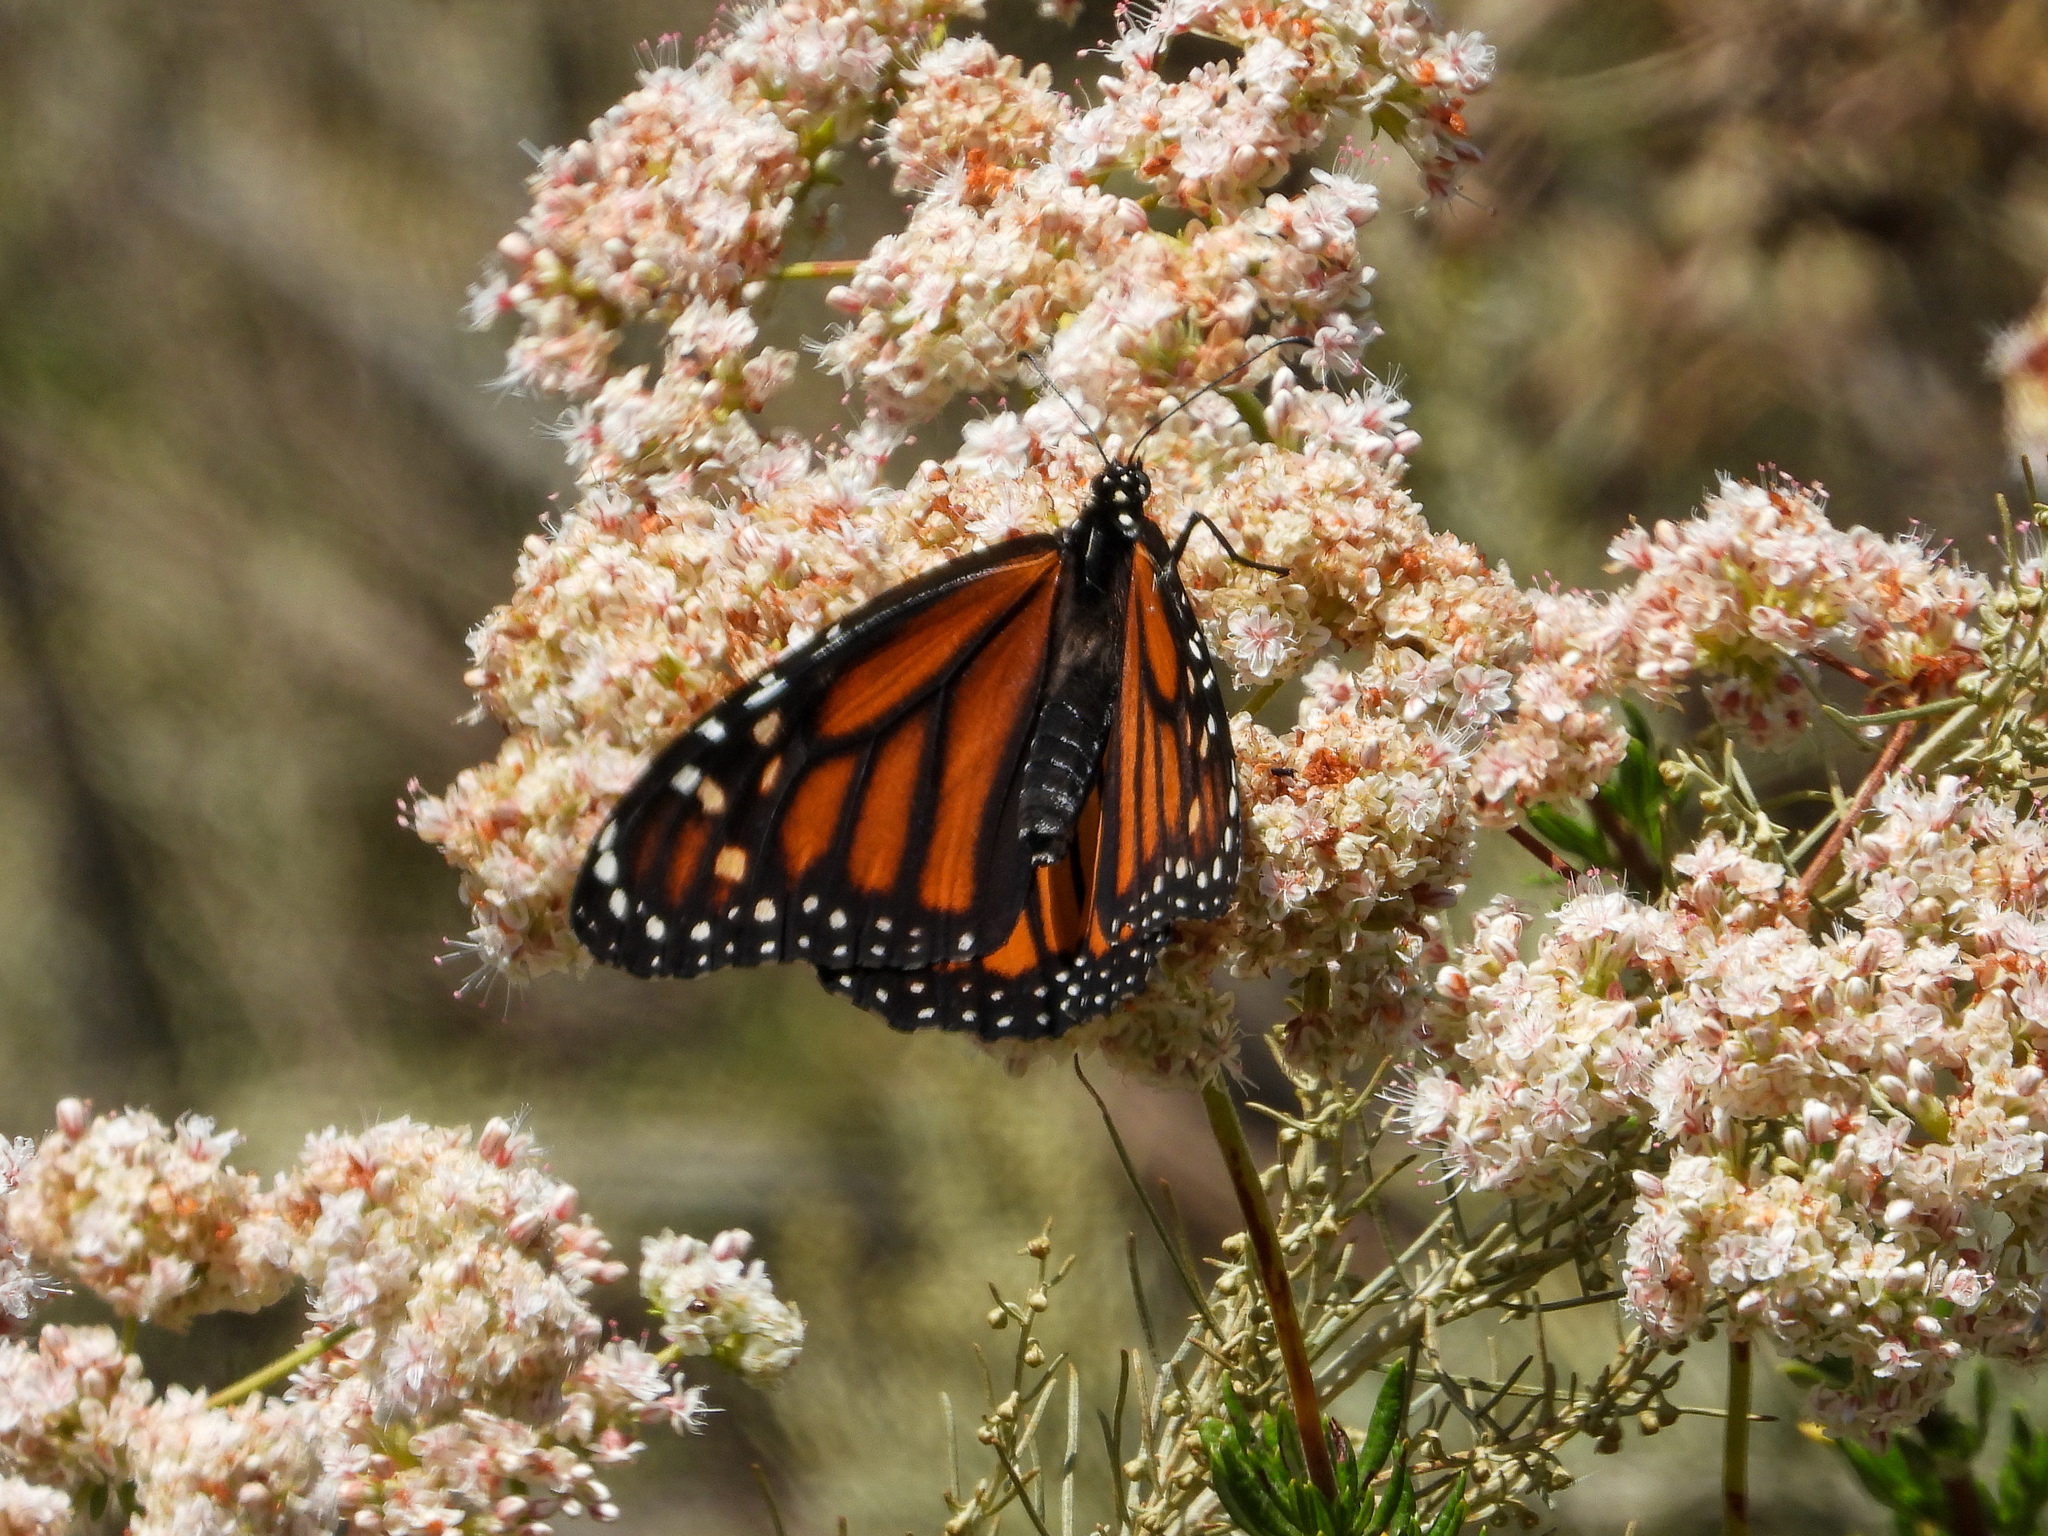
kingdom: Animalia
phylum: Arthropoda
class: Insecta
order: Lepidoptera
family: Nymphalidae
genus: Danaus
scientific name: Danaus plexippus
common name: Monarch
